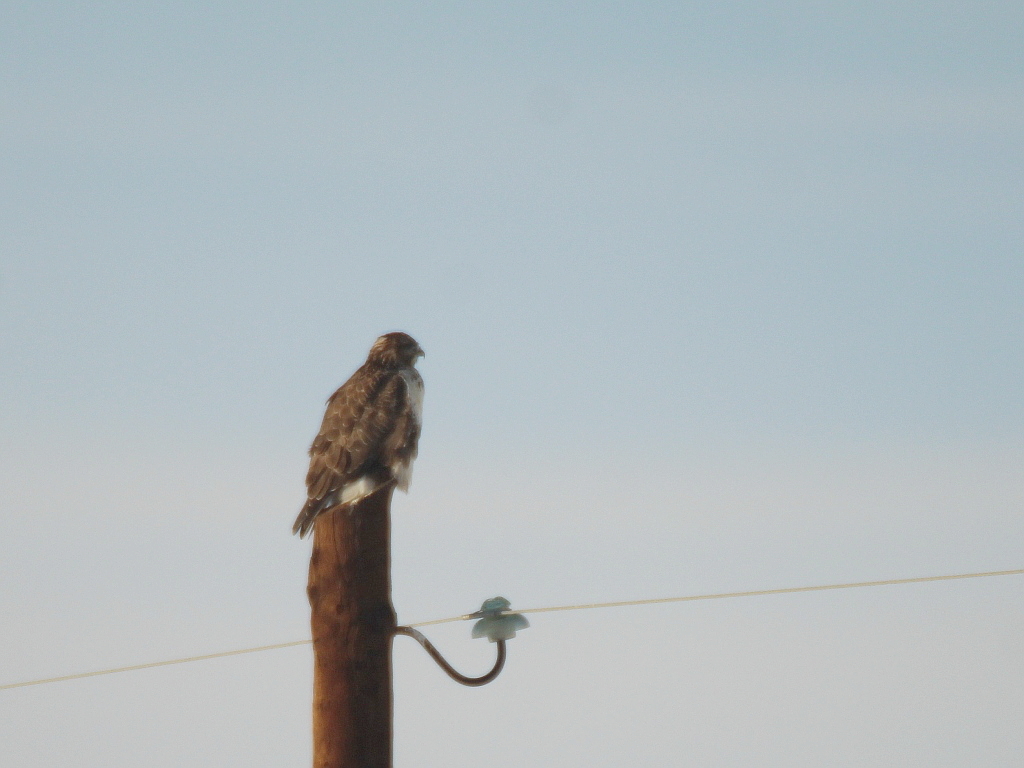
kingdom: Animalia
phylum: Chordata
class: Aves
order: Accipitriformes
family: Accipitridae
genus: Buteo
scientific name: Buteo hemilasius
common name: Upland buzzard
